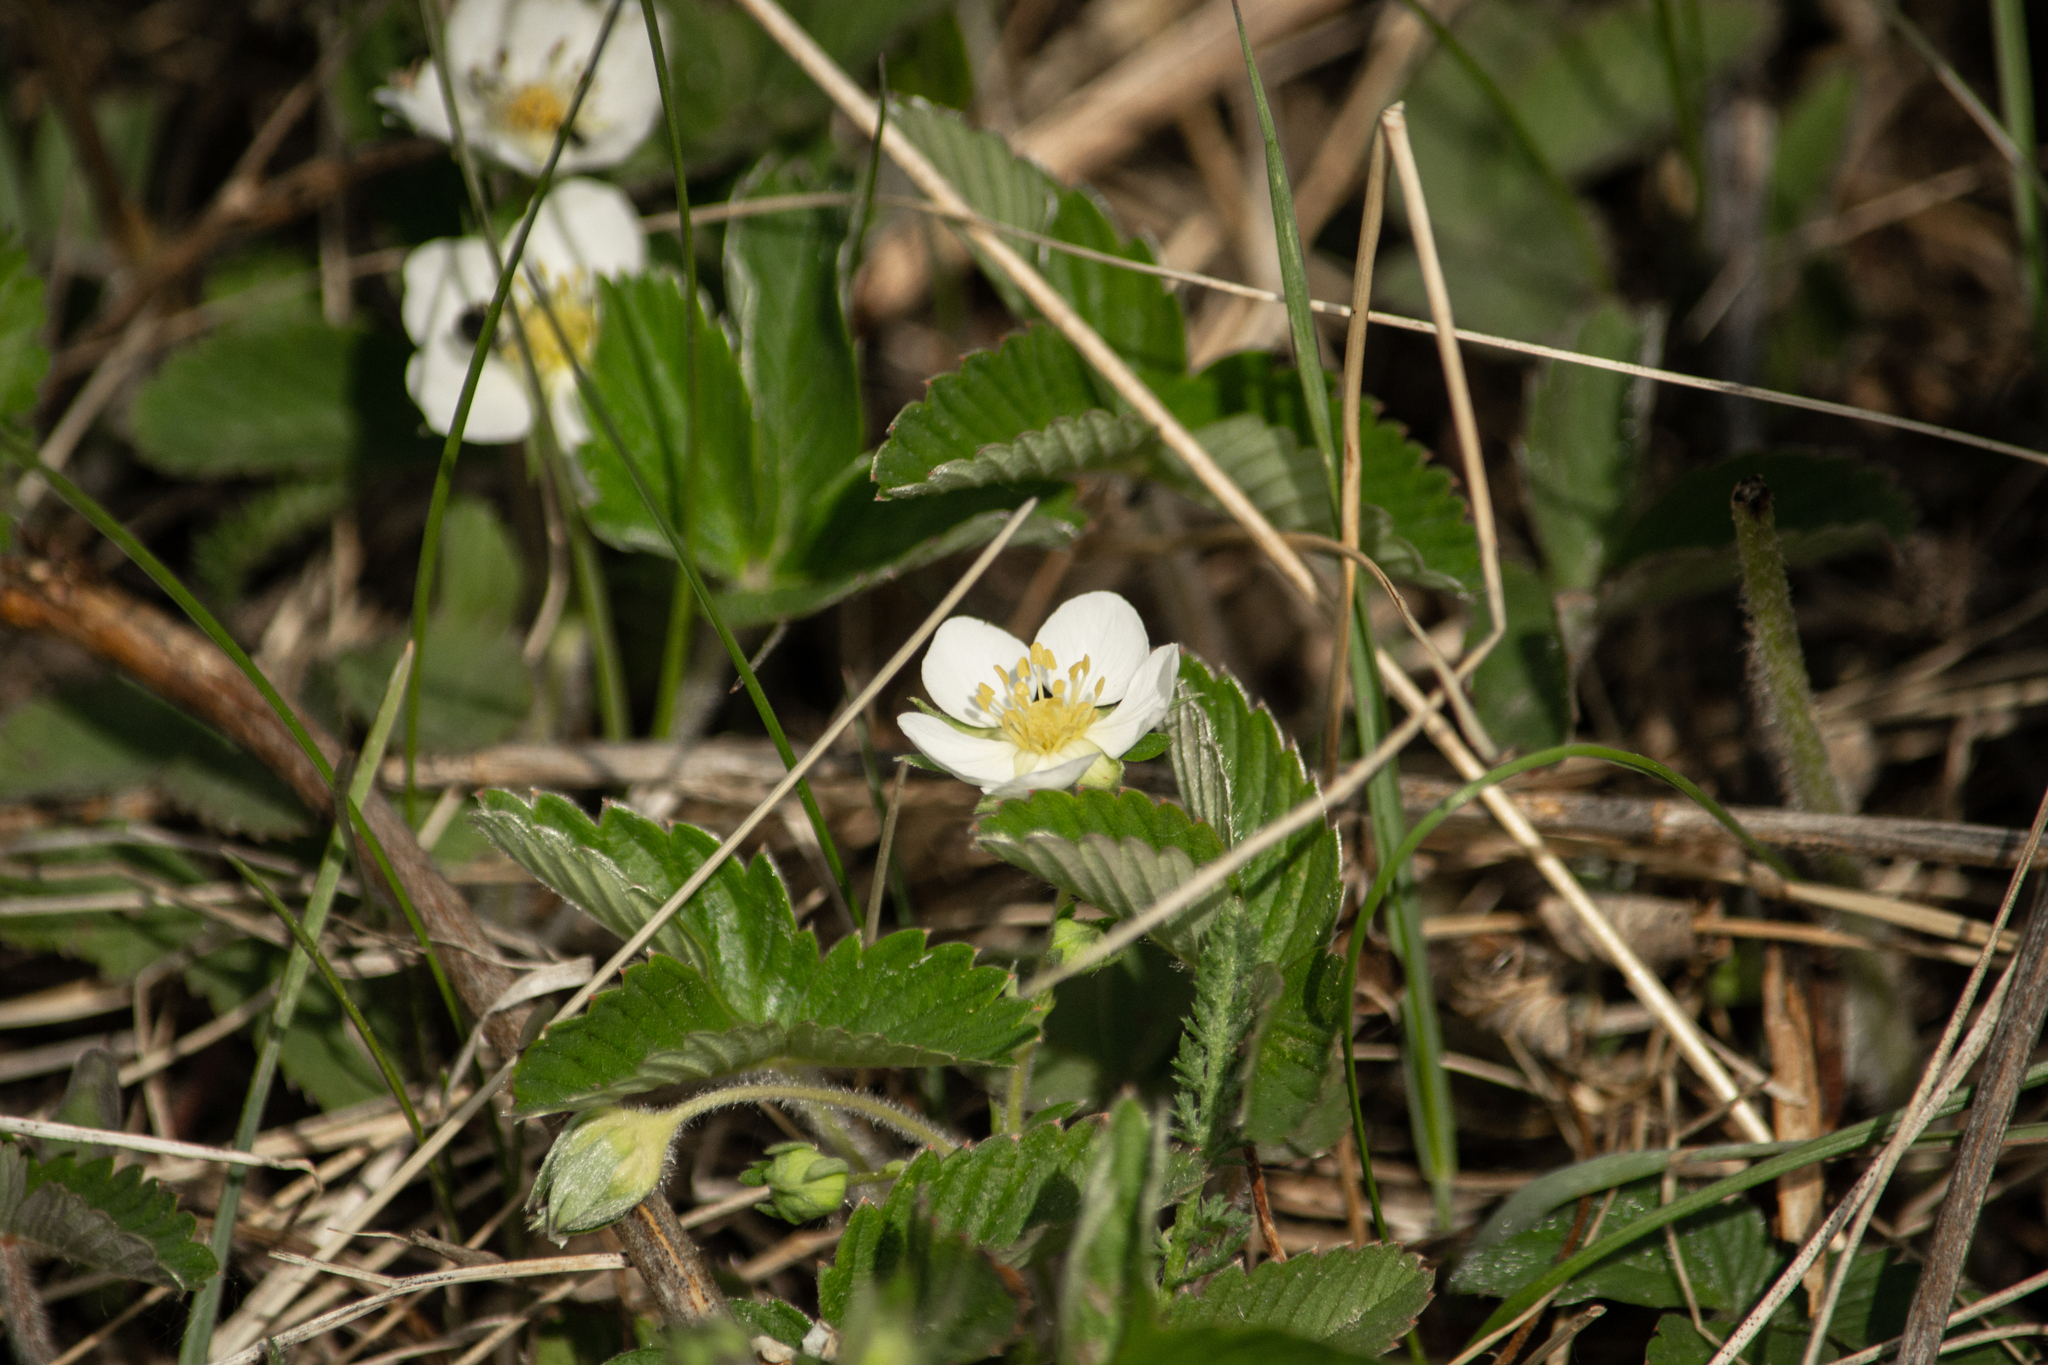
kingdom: Plantae
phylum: Tracheophyta
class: Magnoliopsida
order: Rosales
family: Rosaceae
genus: Fragaria
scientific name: Fragaria viridis
